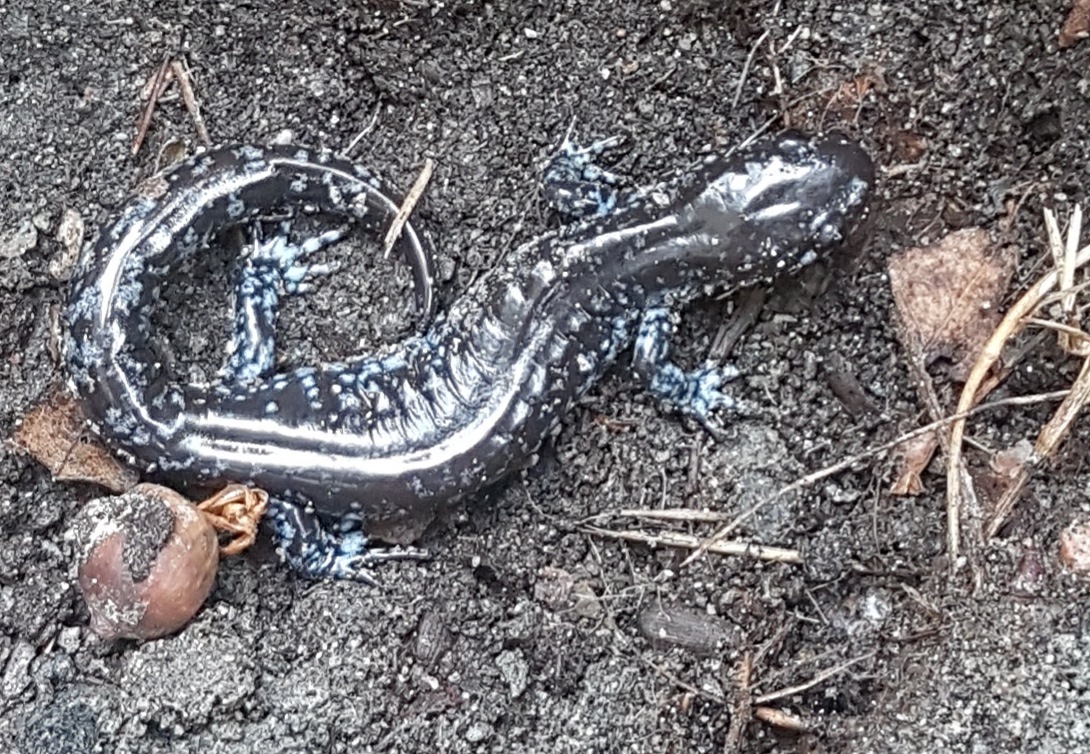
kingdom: Animalia
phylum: Chordata
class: Amphibia
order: Caudata
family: Ambystomatidae
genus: Ambystoma
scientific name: Ambystoma laterale
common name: Blue-spotted salamander
